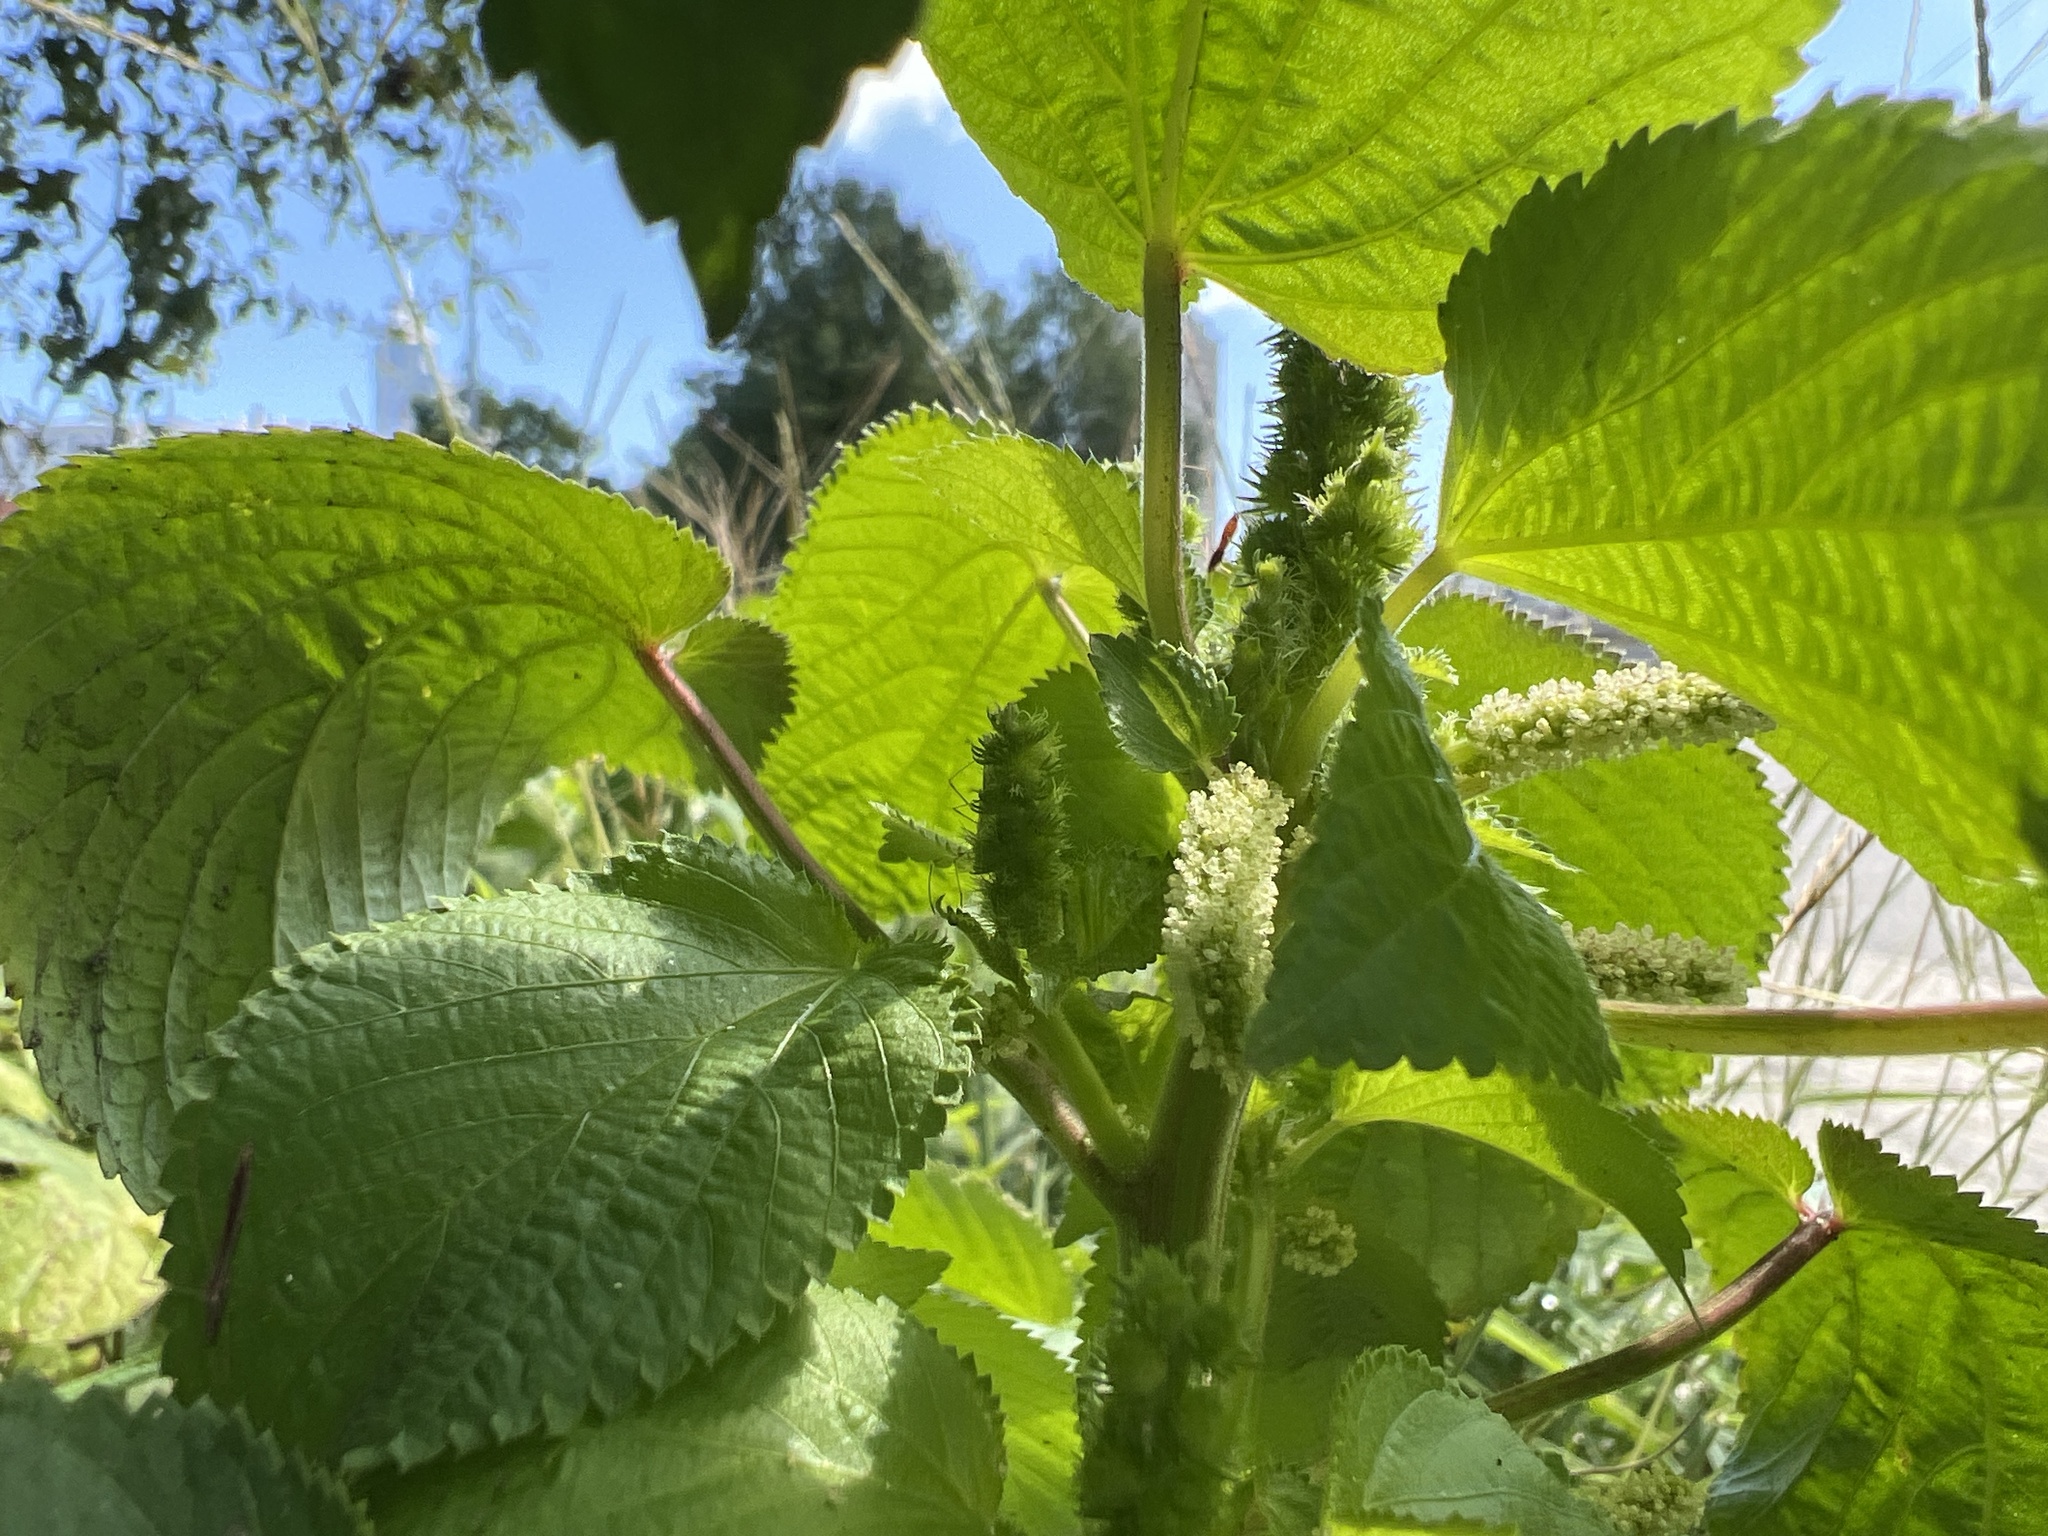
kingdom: Plantae
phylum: Tracheophyta
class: Magnoliopsida
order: Malpighiales
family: Euphorbiaceae
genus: Acalypha
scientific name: Acalypha ostryifolia
